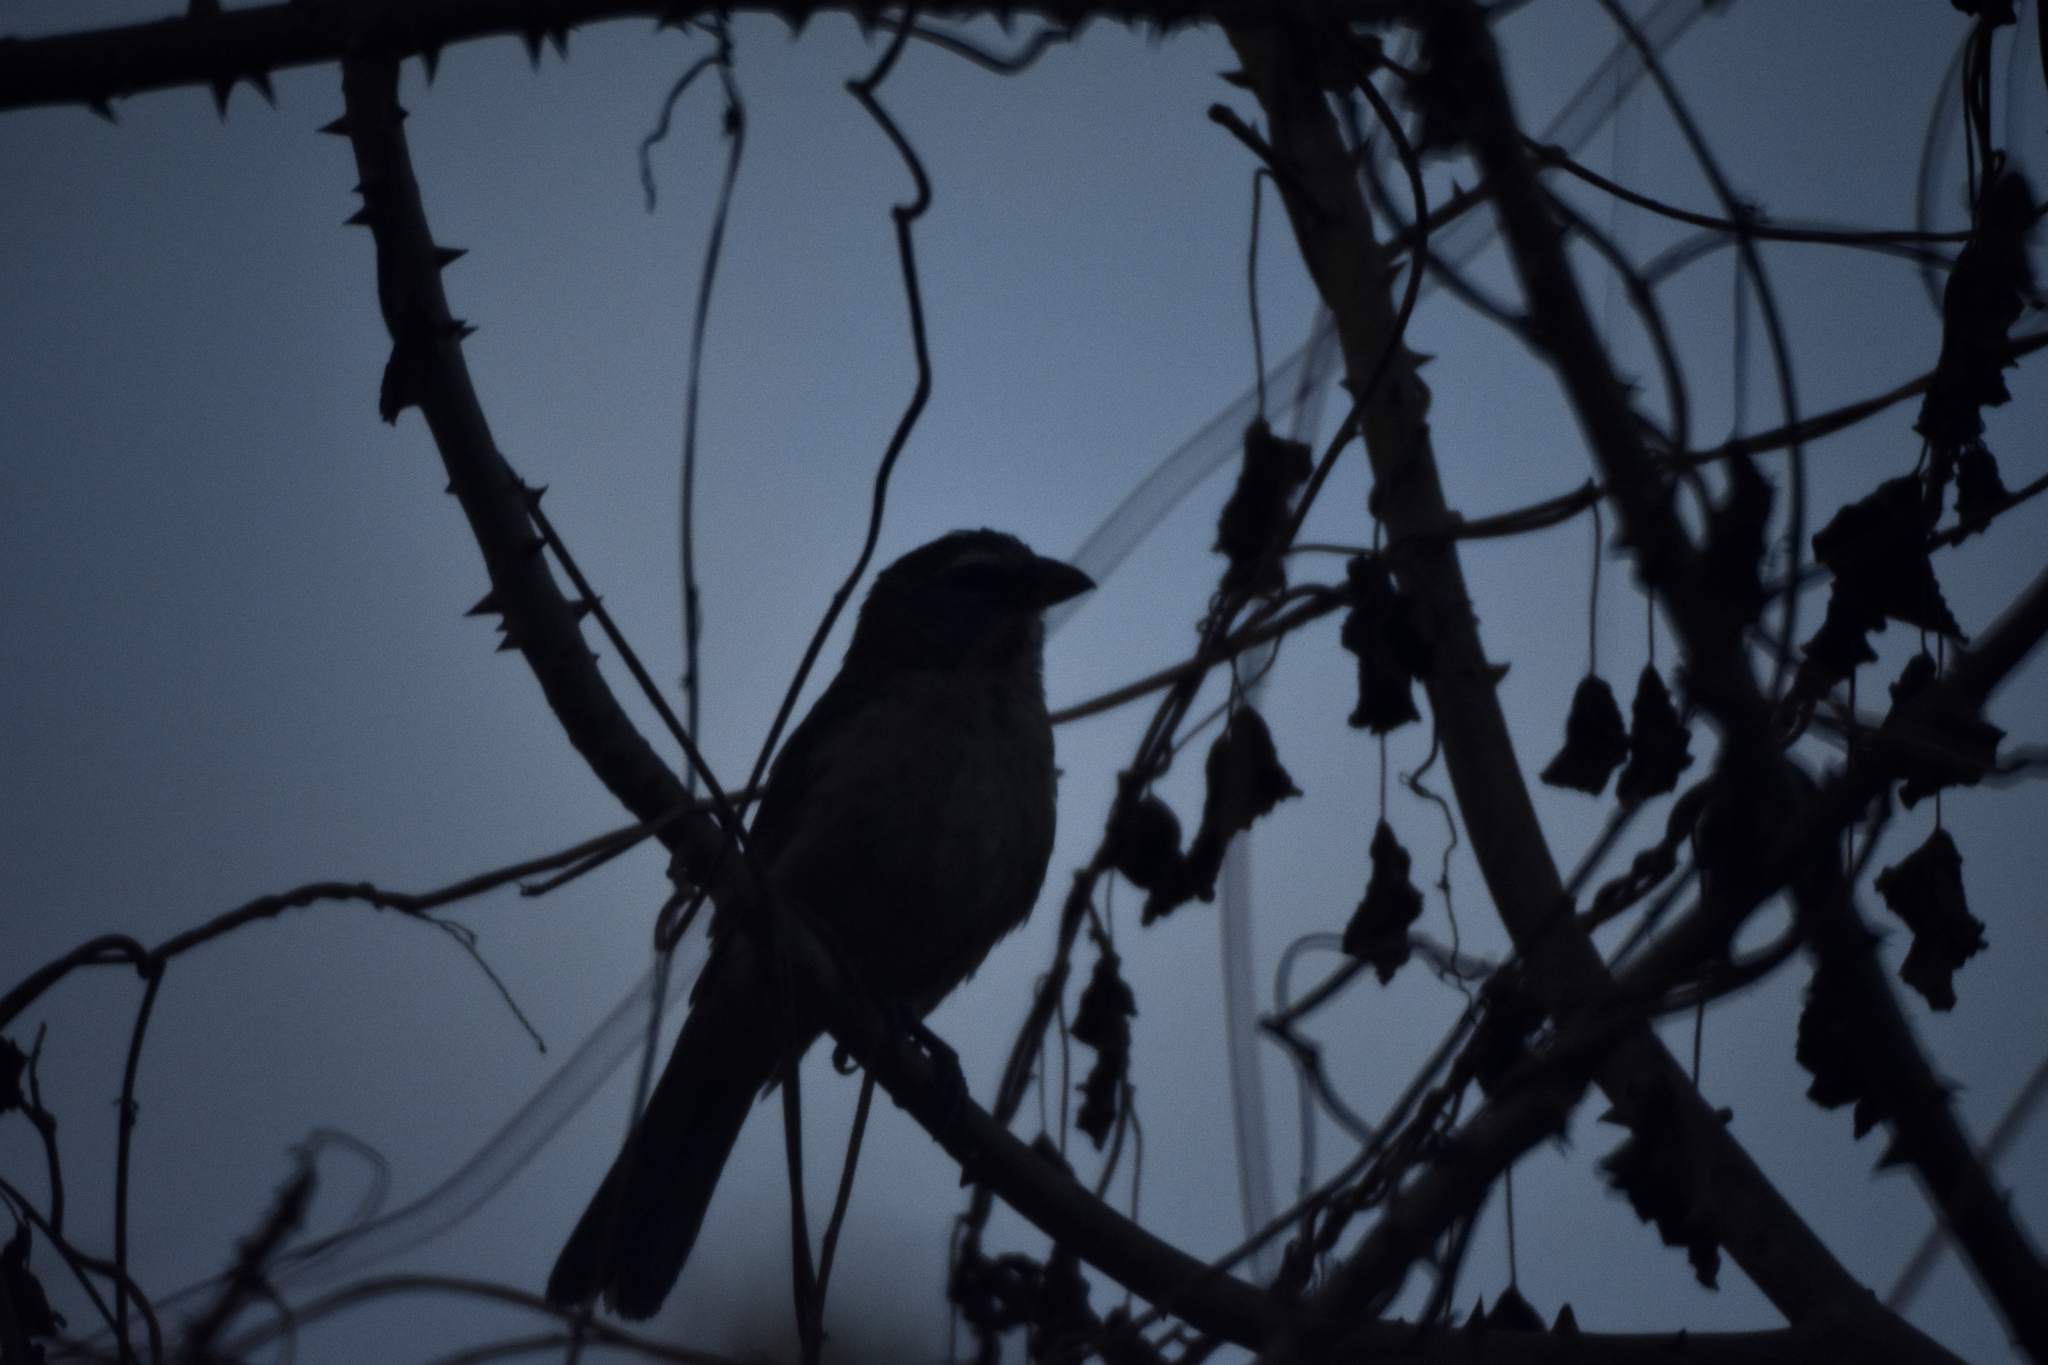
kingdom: Animalia
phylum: Chordata
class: Aves
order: Passeriformes
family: Thraupidae
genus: Saltator
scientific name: Saltator grandis
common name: Cinnamon-bellied saltator
